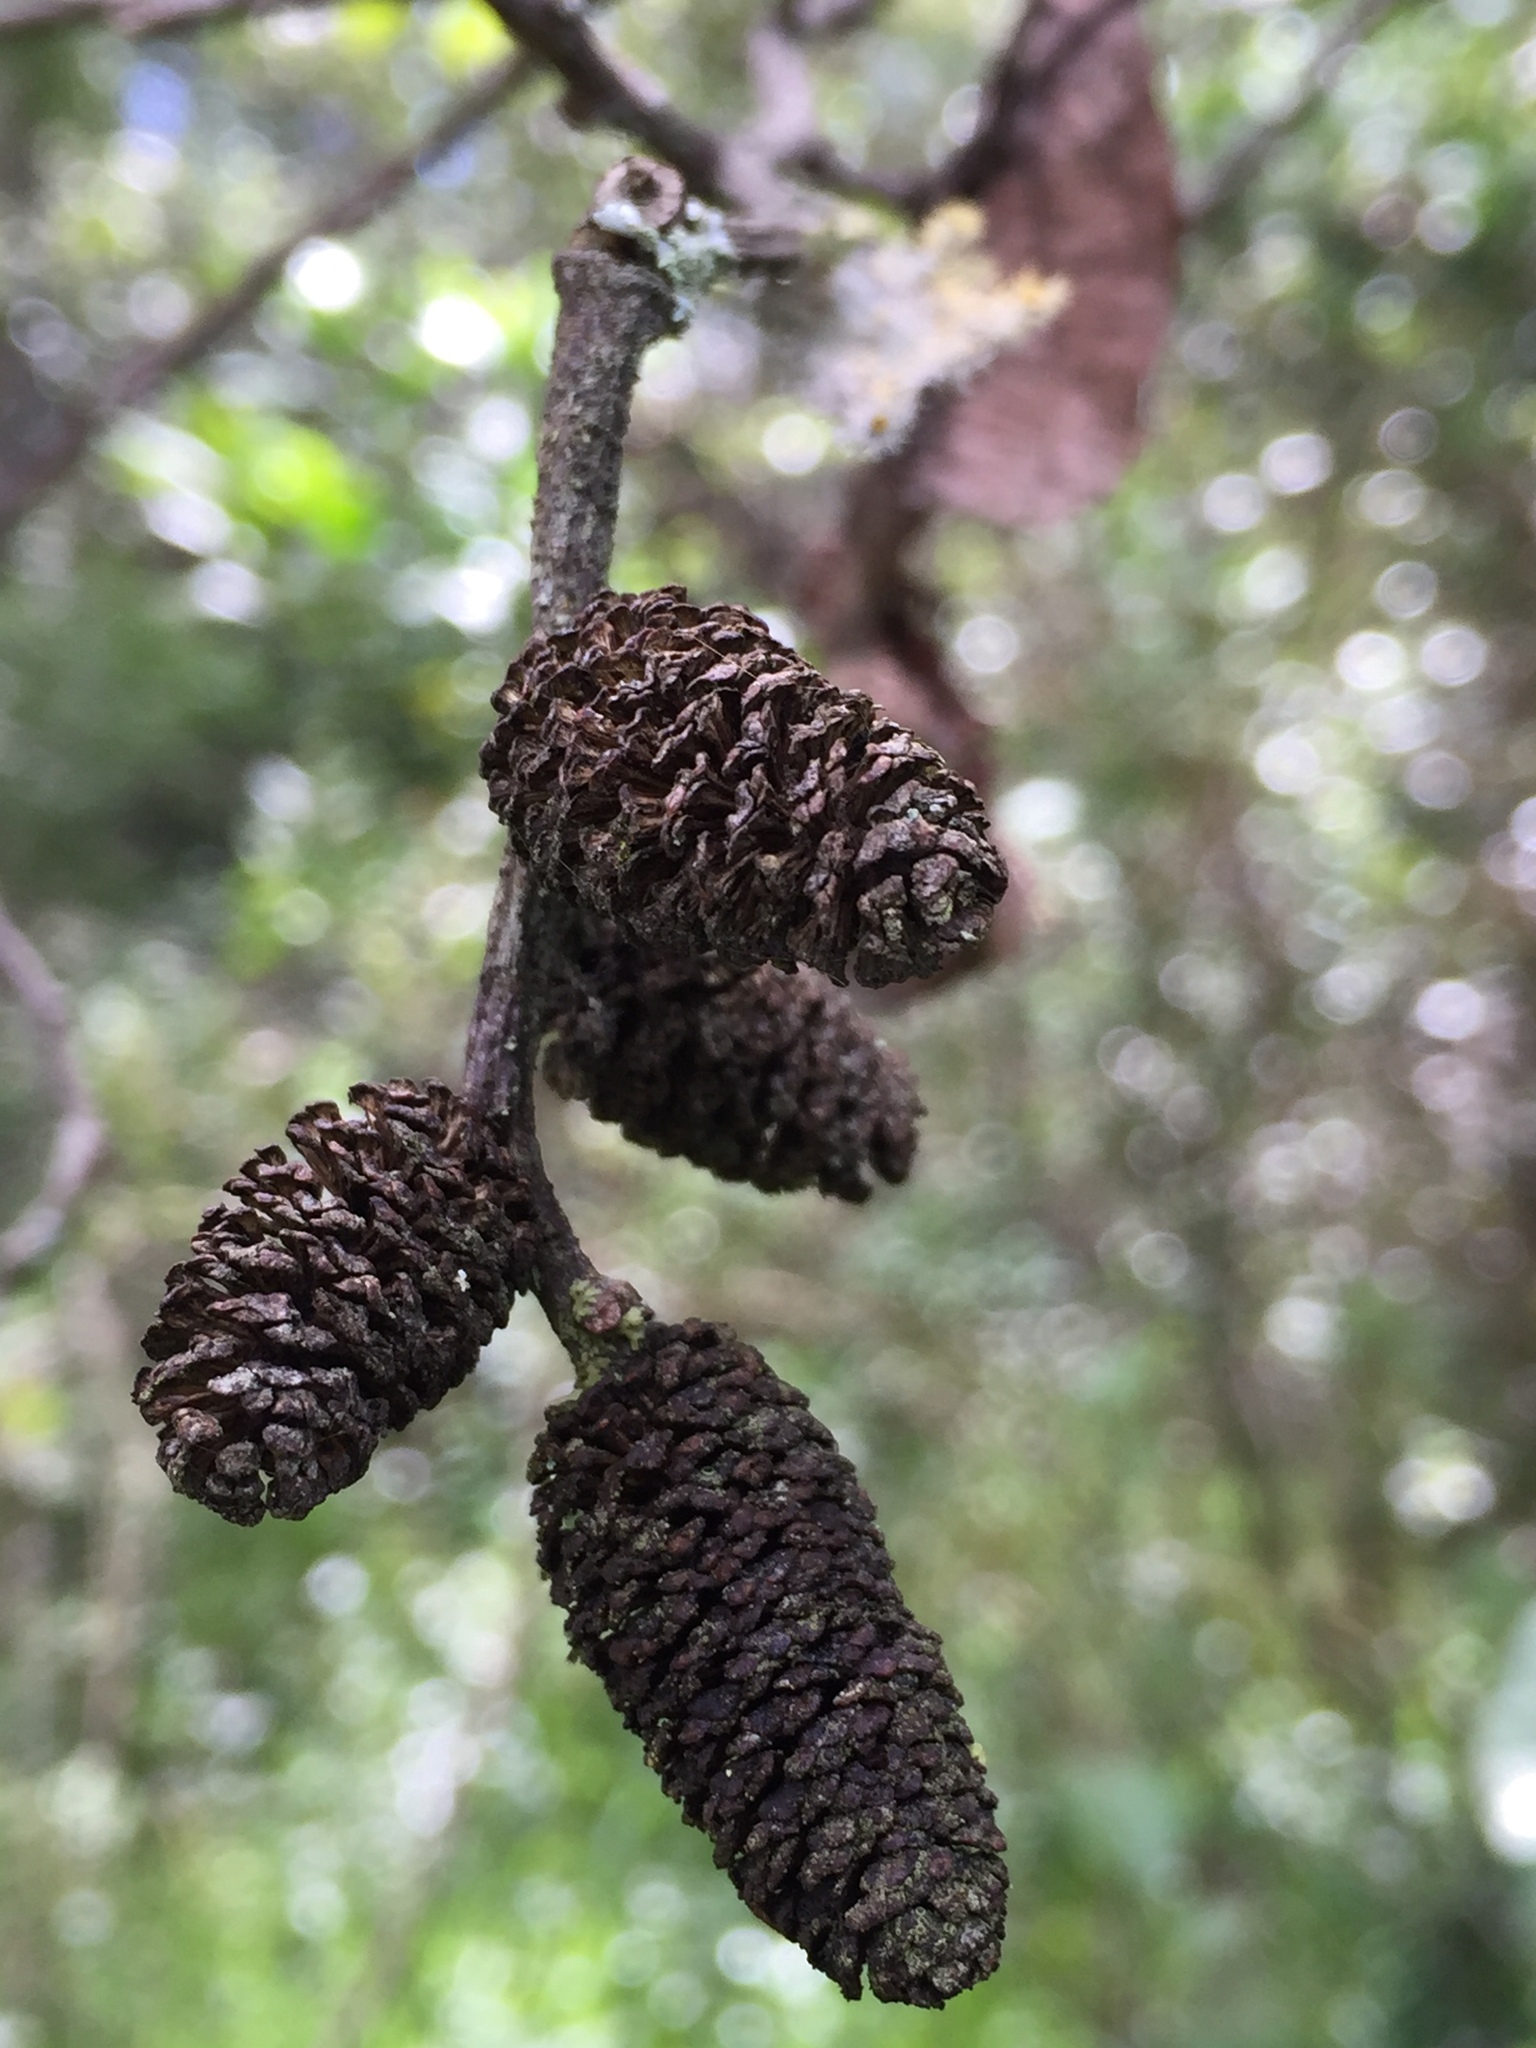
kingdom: Plantae
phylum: Tracheophyta
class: Magnoliopsida
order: Fagales
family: Betulaceae
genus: Alnus
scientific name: Alnus acuminata
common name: Alder
